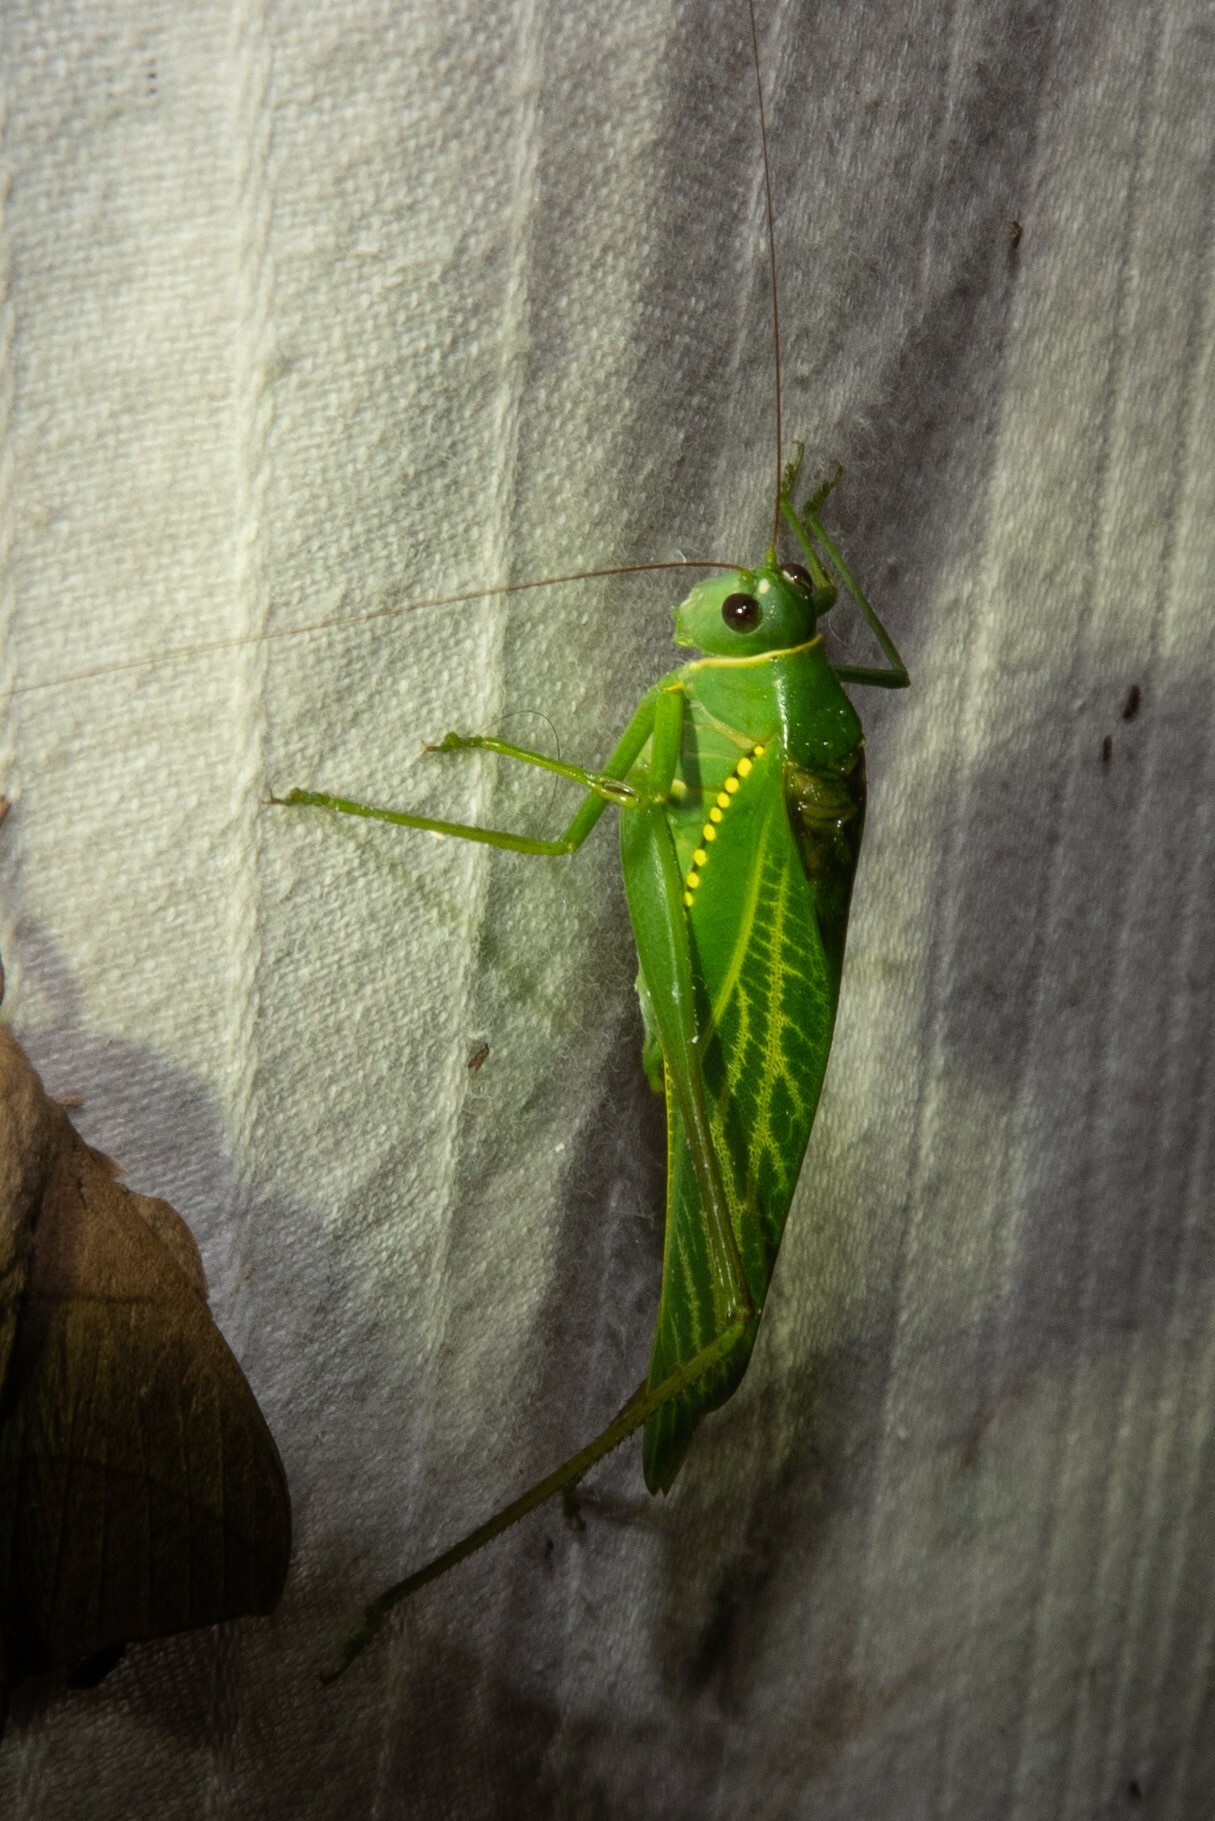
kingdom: Animalia
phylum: Arthropoda
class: Insecta
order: Orthoptera
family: Tettigoniidae
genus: Microcentrum
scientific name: Microcentrum xavieri
